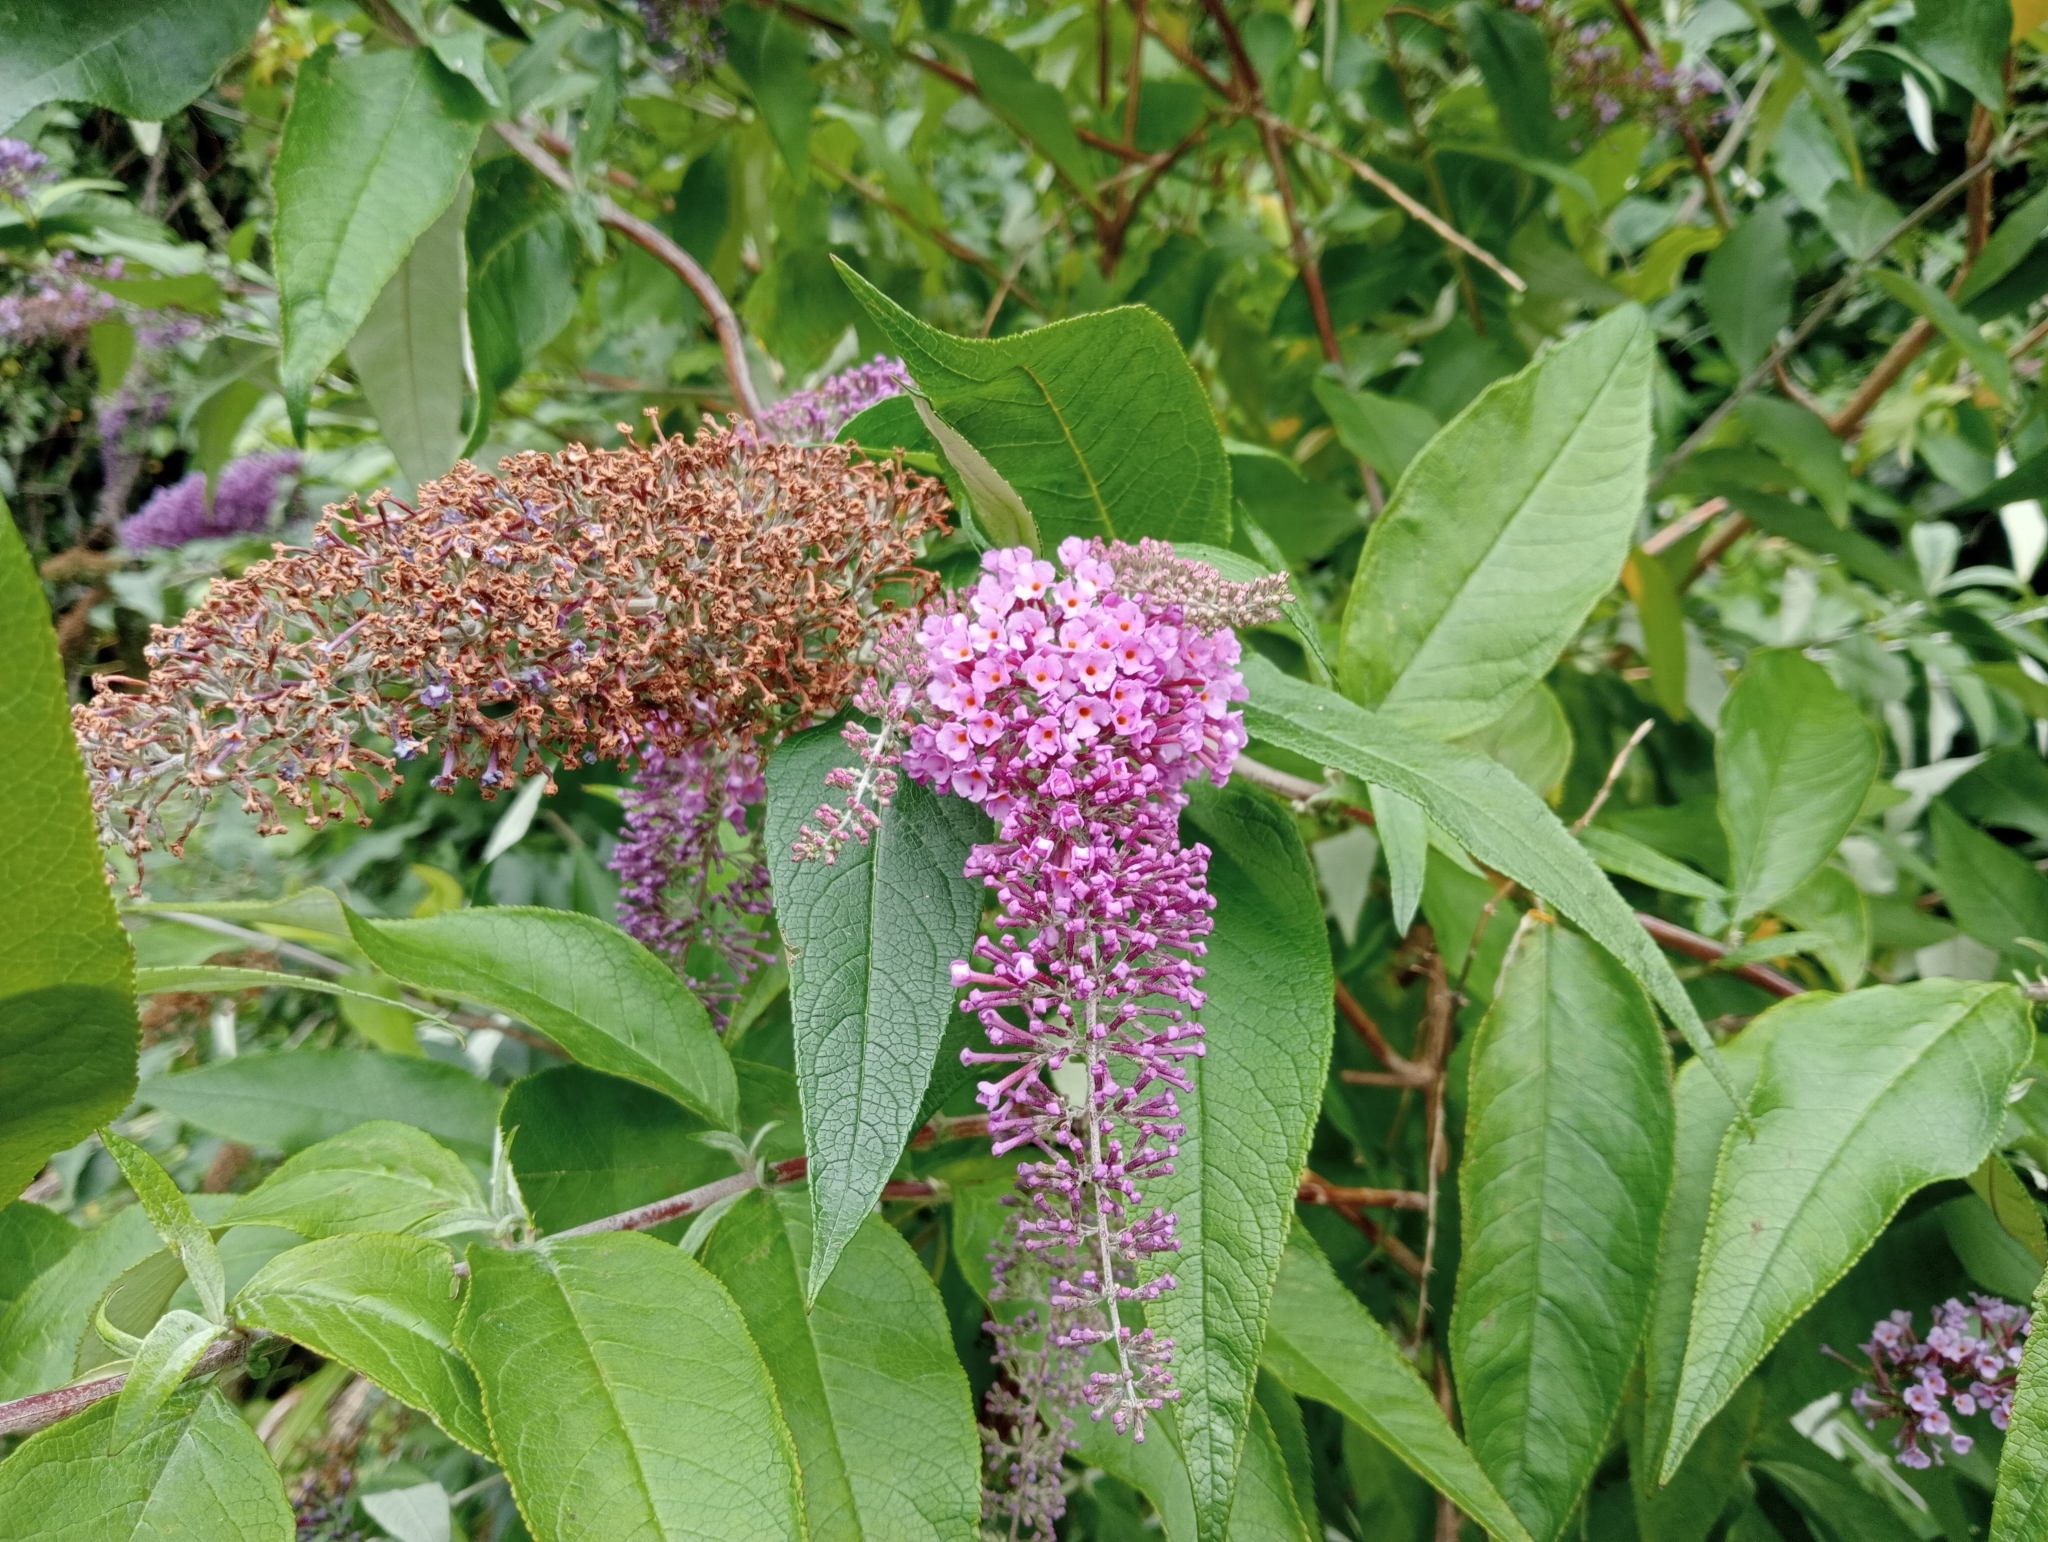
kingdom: Plantae
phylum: Tracheophyta
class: Magnoliopsida
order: Lamiales
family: Scrophulariaceae
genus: Buddleja
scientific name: Buddleja davidii
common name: Butterfly-bush
